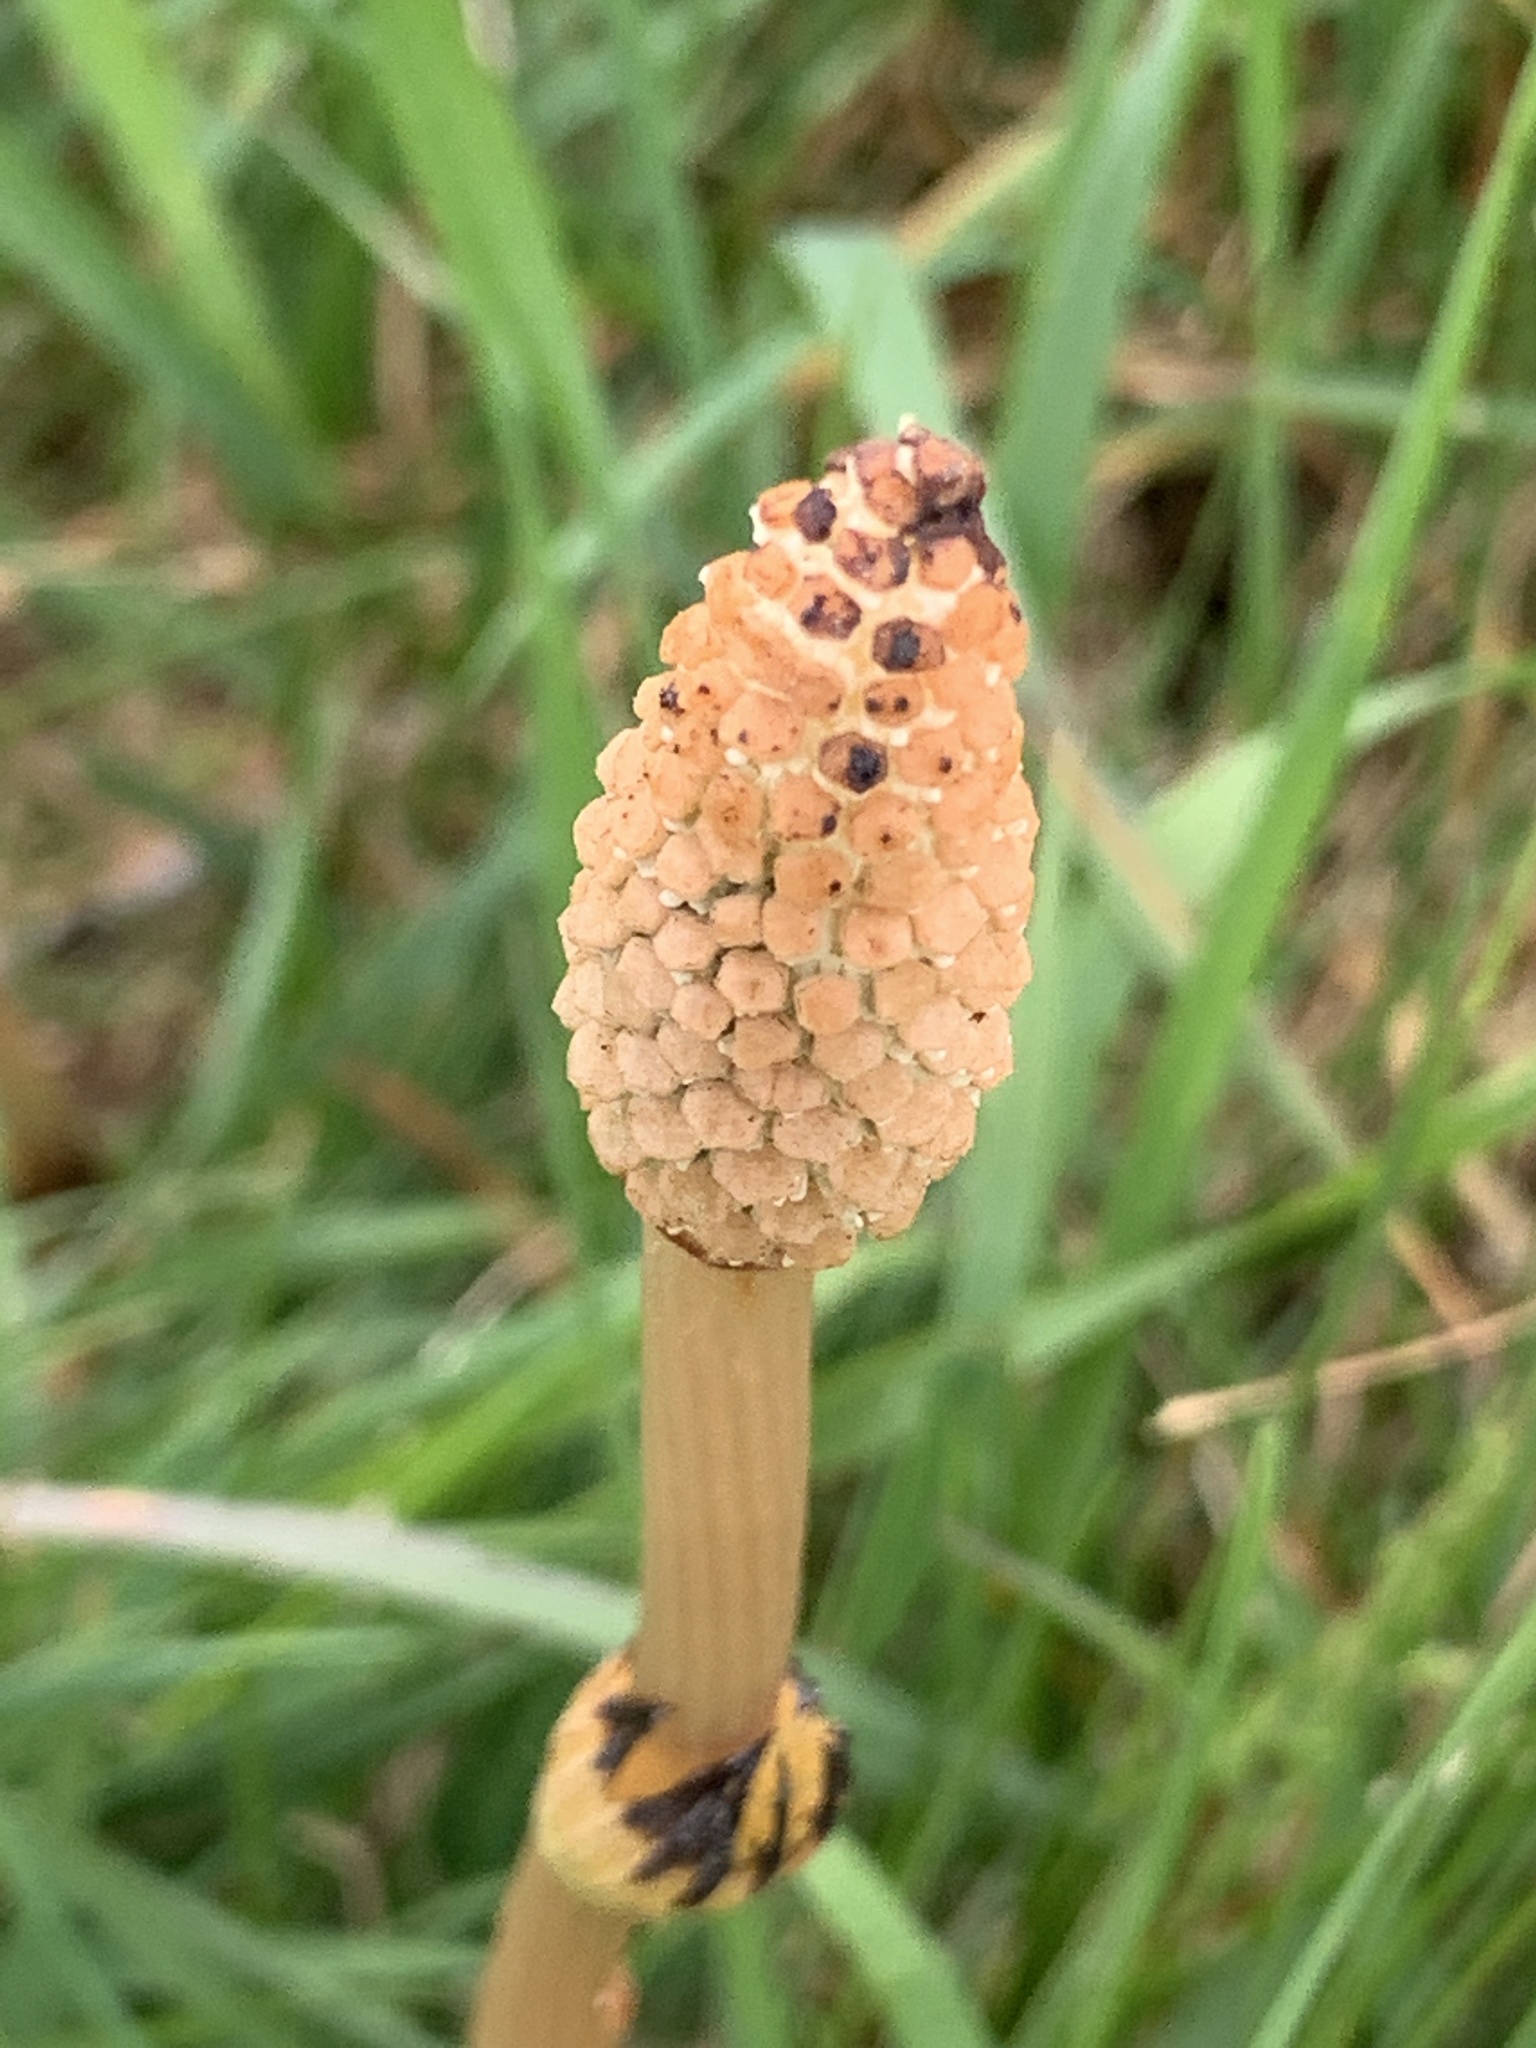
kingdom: Plantae
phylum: Tracheophyta
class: Polypodiopsida
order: Equisetales
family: Equisetaceae
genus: Equisetum
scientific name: Equisetum arvense
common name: Field horsetail
